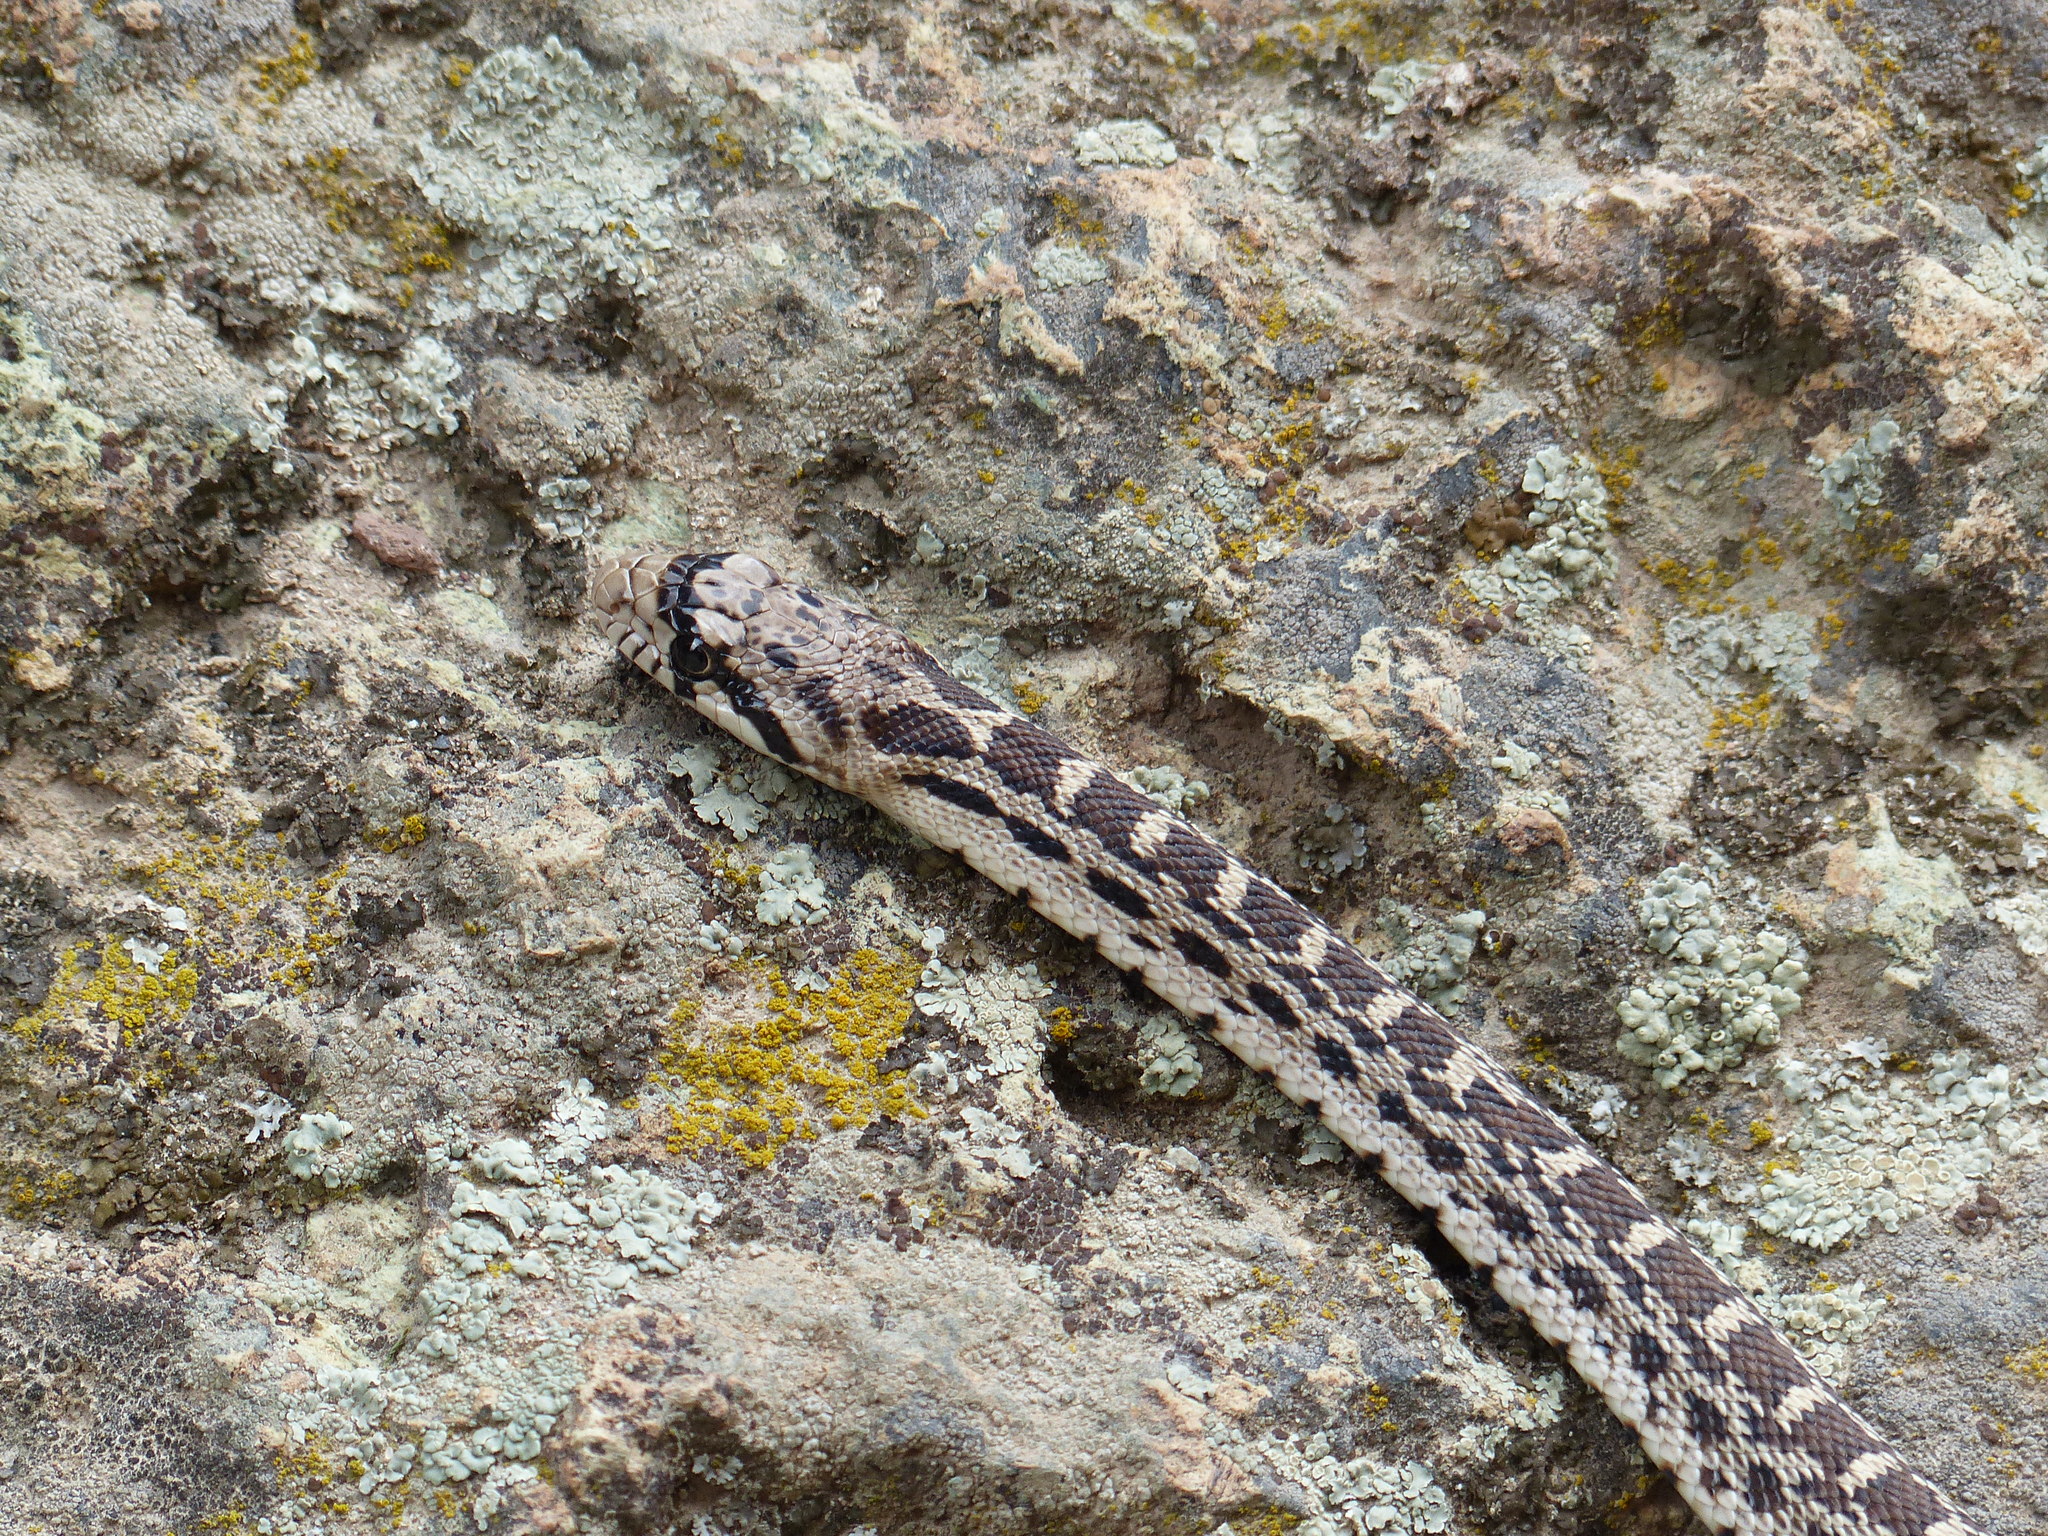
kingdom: Animalia
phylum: Chordata
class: Squamata
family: Colubridae
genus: Pituophis
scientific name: Pituophis catenifer
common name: Gopher snake
